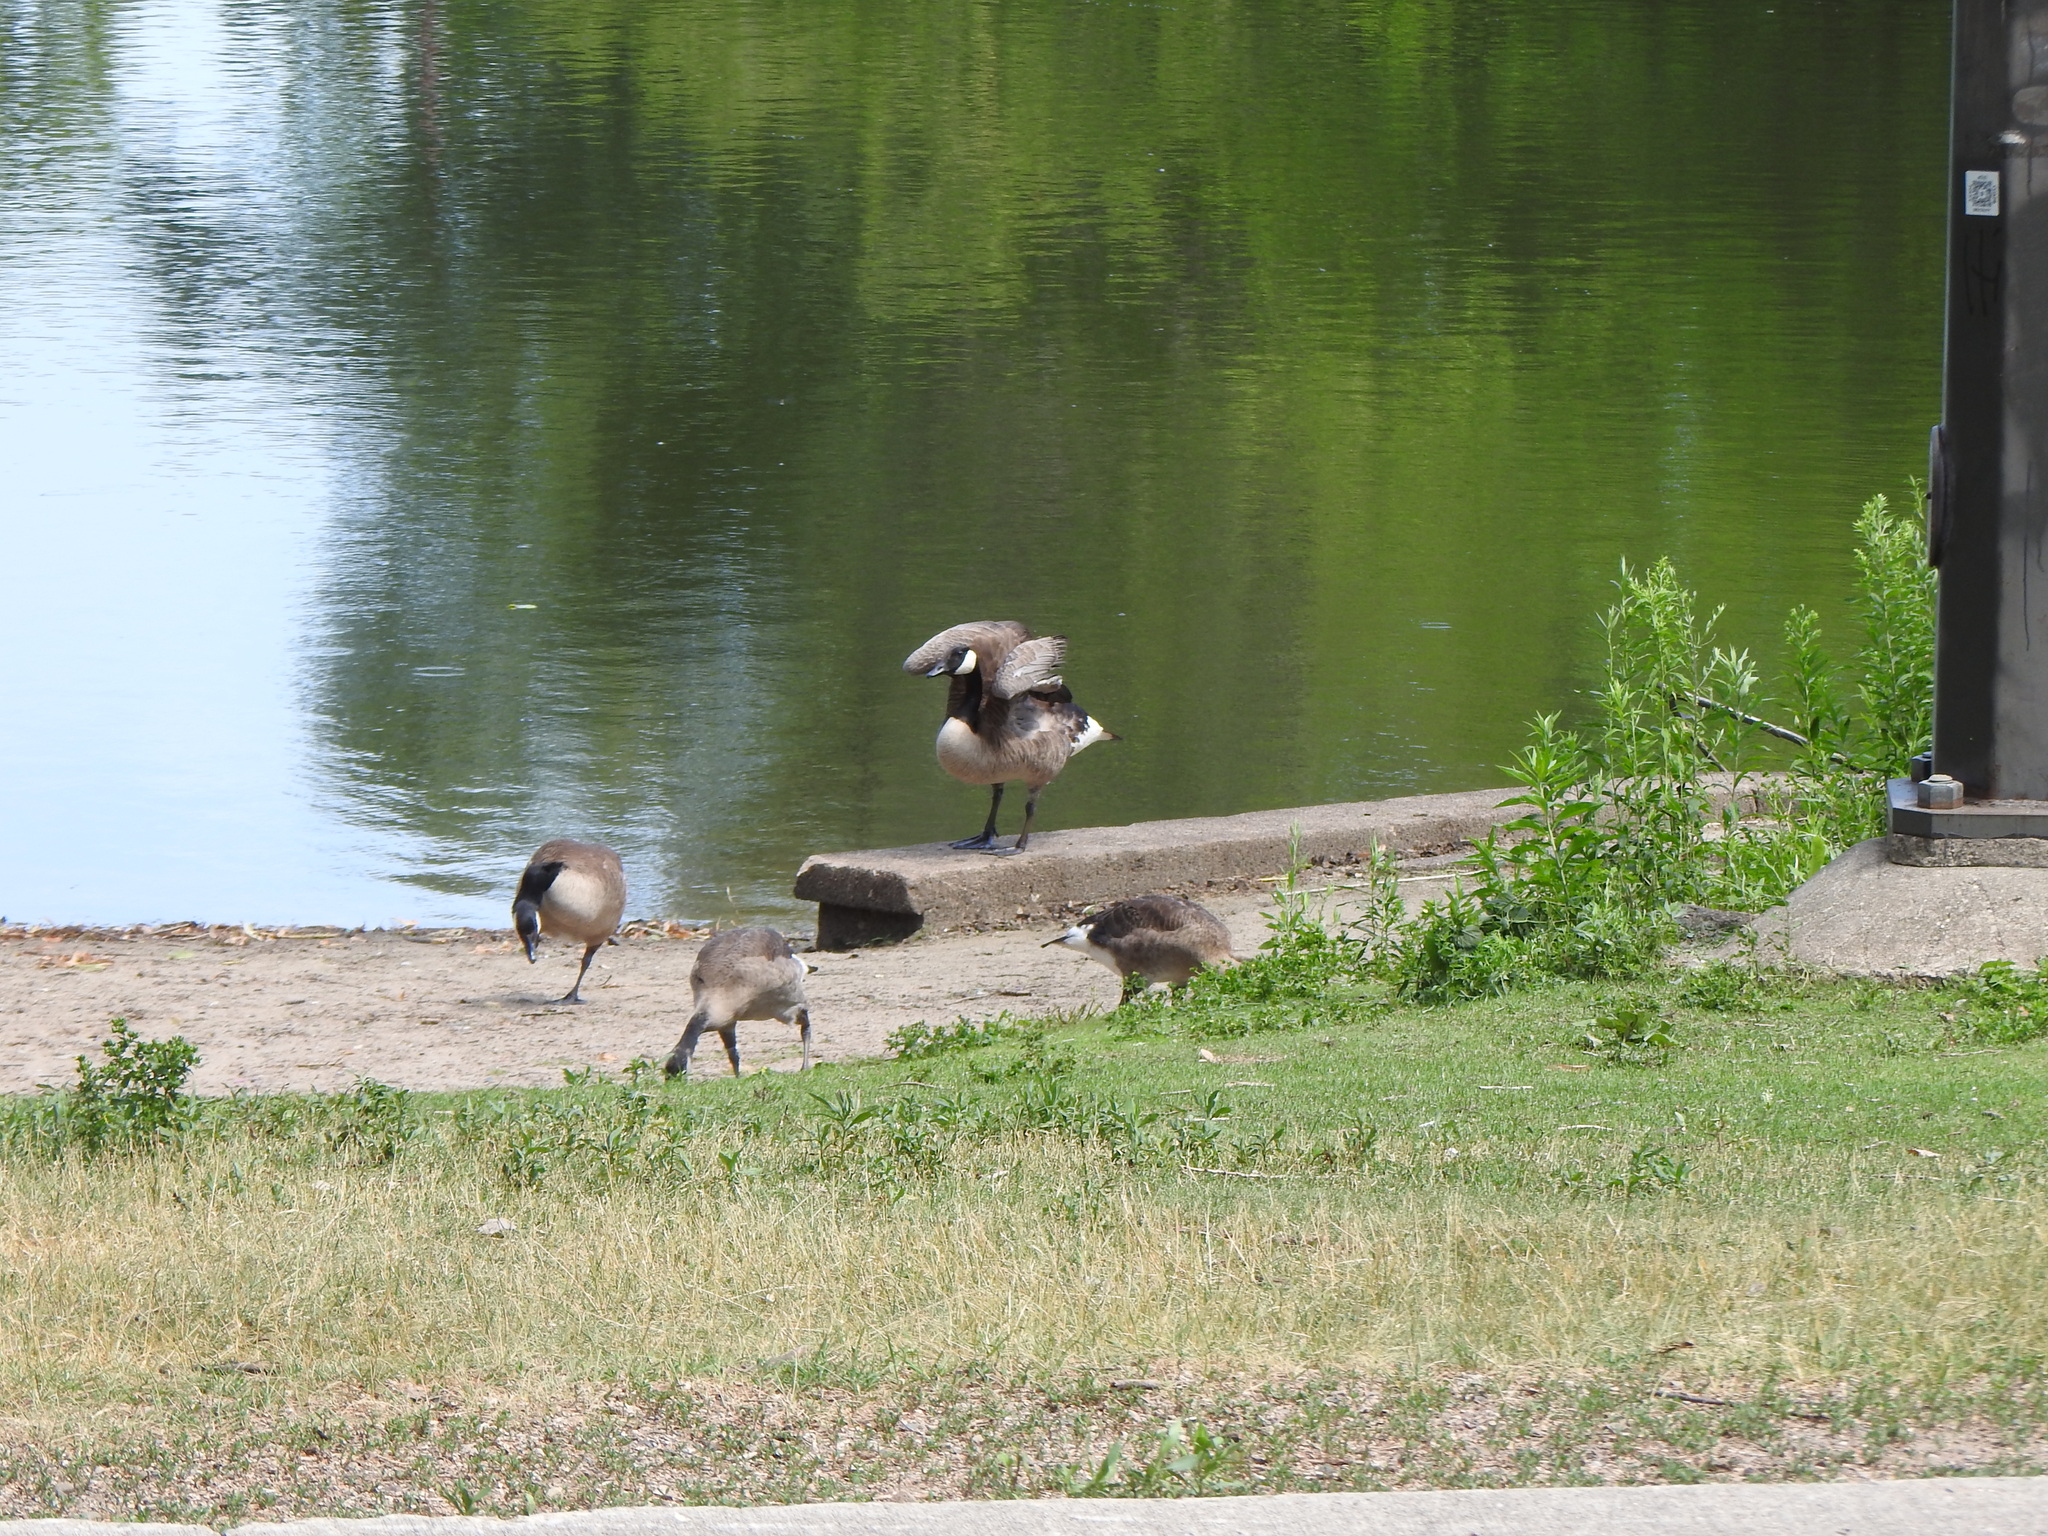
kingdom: Animalia
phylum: Chordata
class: Aves
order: Anseriformes
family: Anatidae
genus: Branta
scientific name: Branta canadensis
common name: Canada goose
